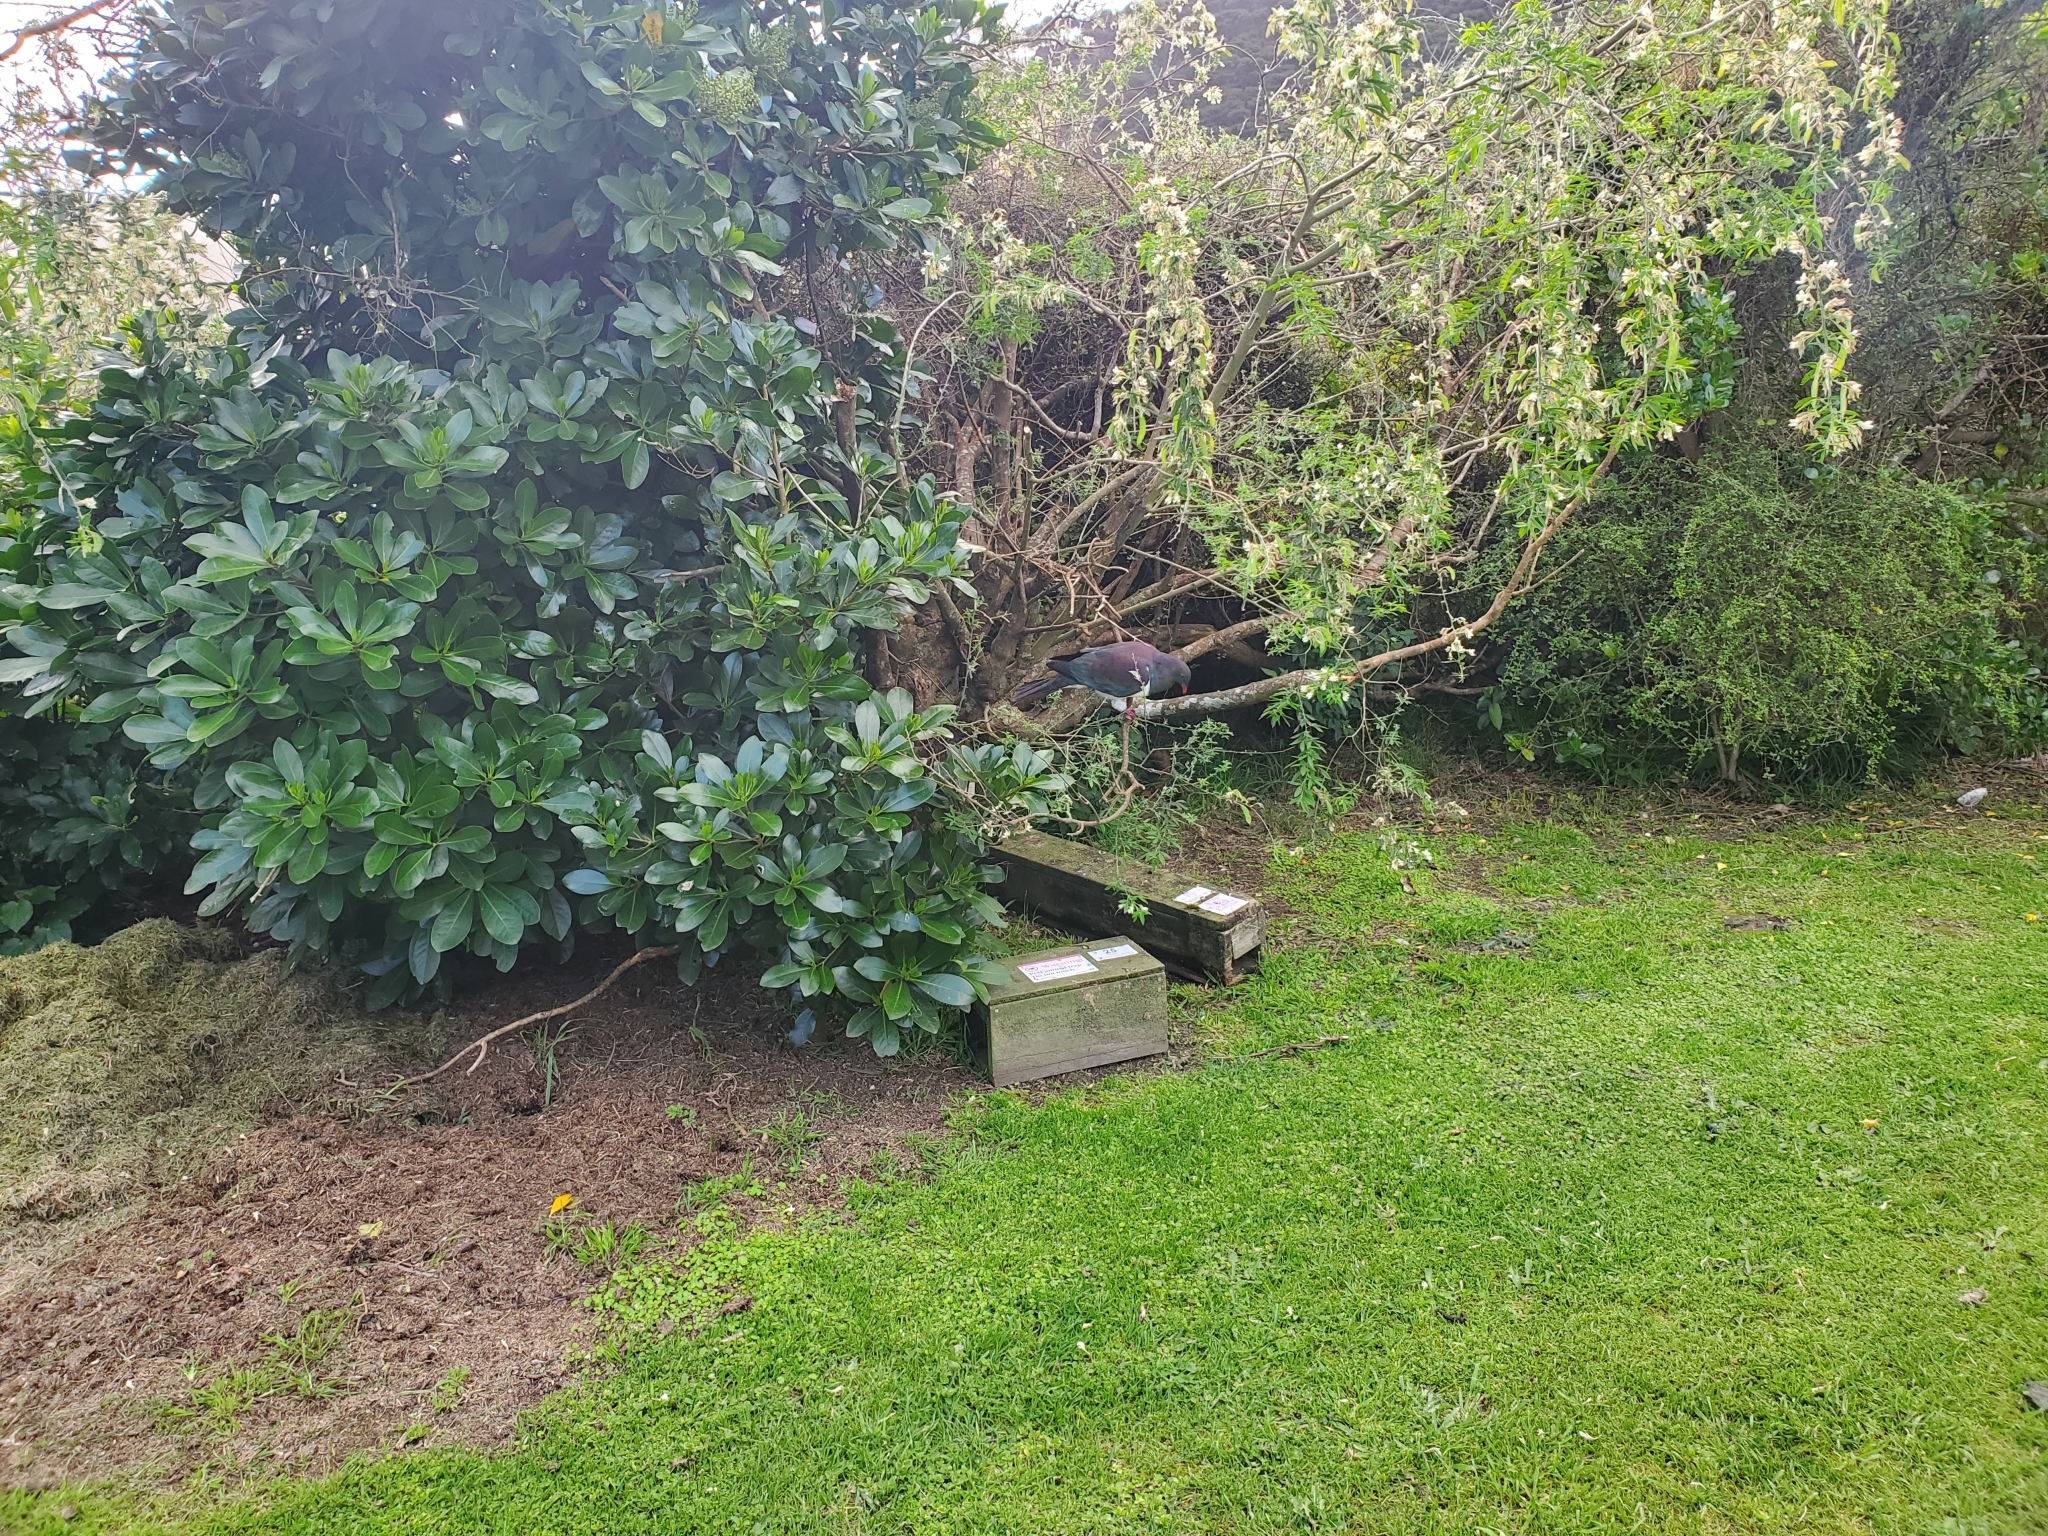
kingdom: Animalia
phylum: Chordata
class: Aves
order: Columbiformes
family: Columbidae
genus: Hemiphaga
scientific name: Hemiphaga novaeseelandiae
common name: New zealand pigeon
